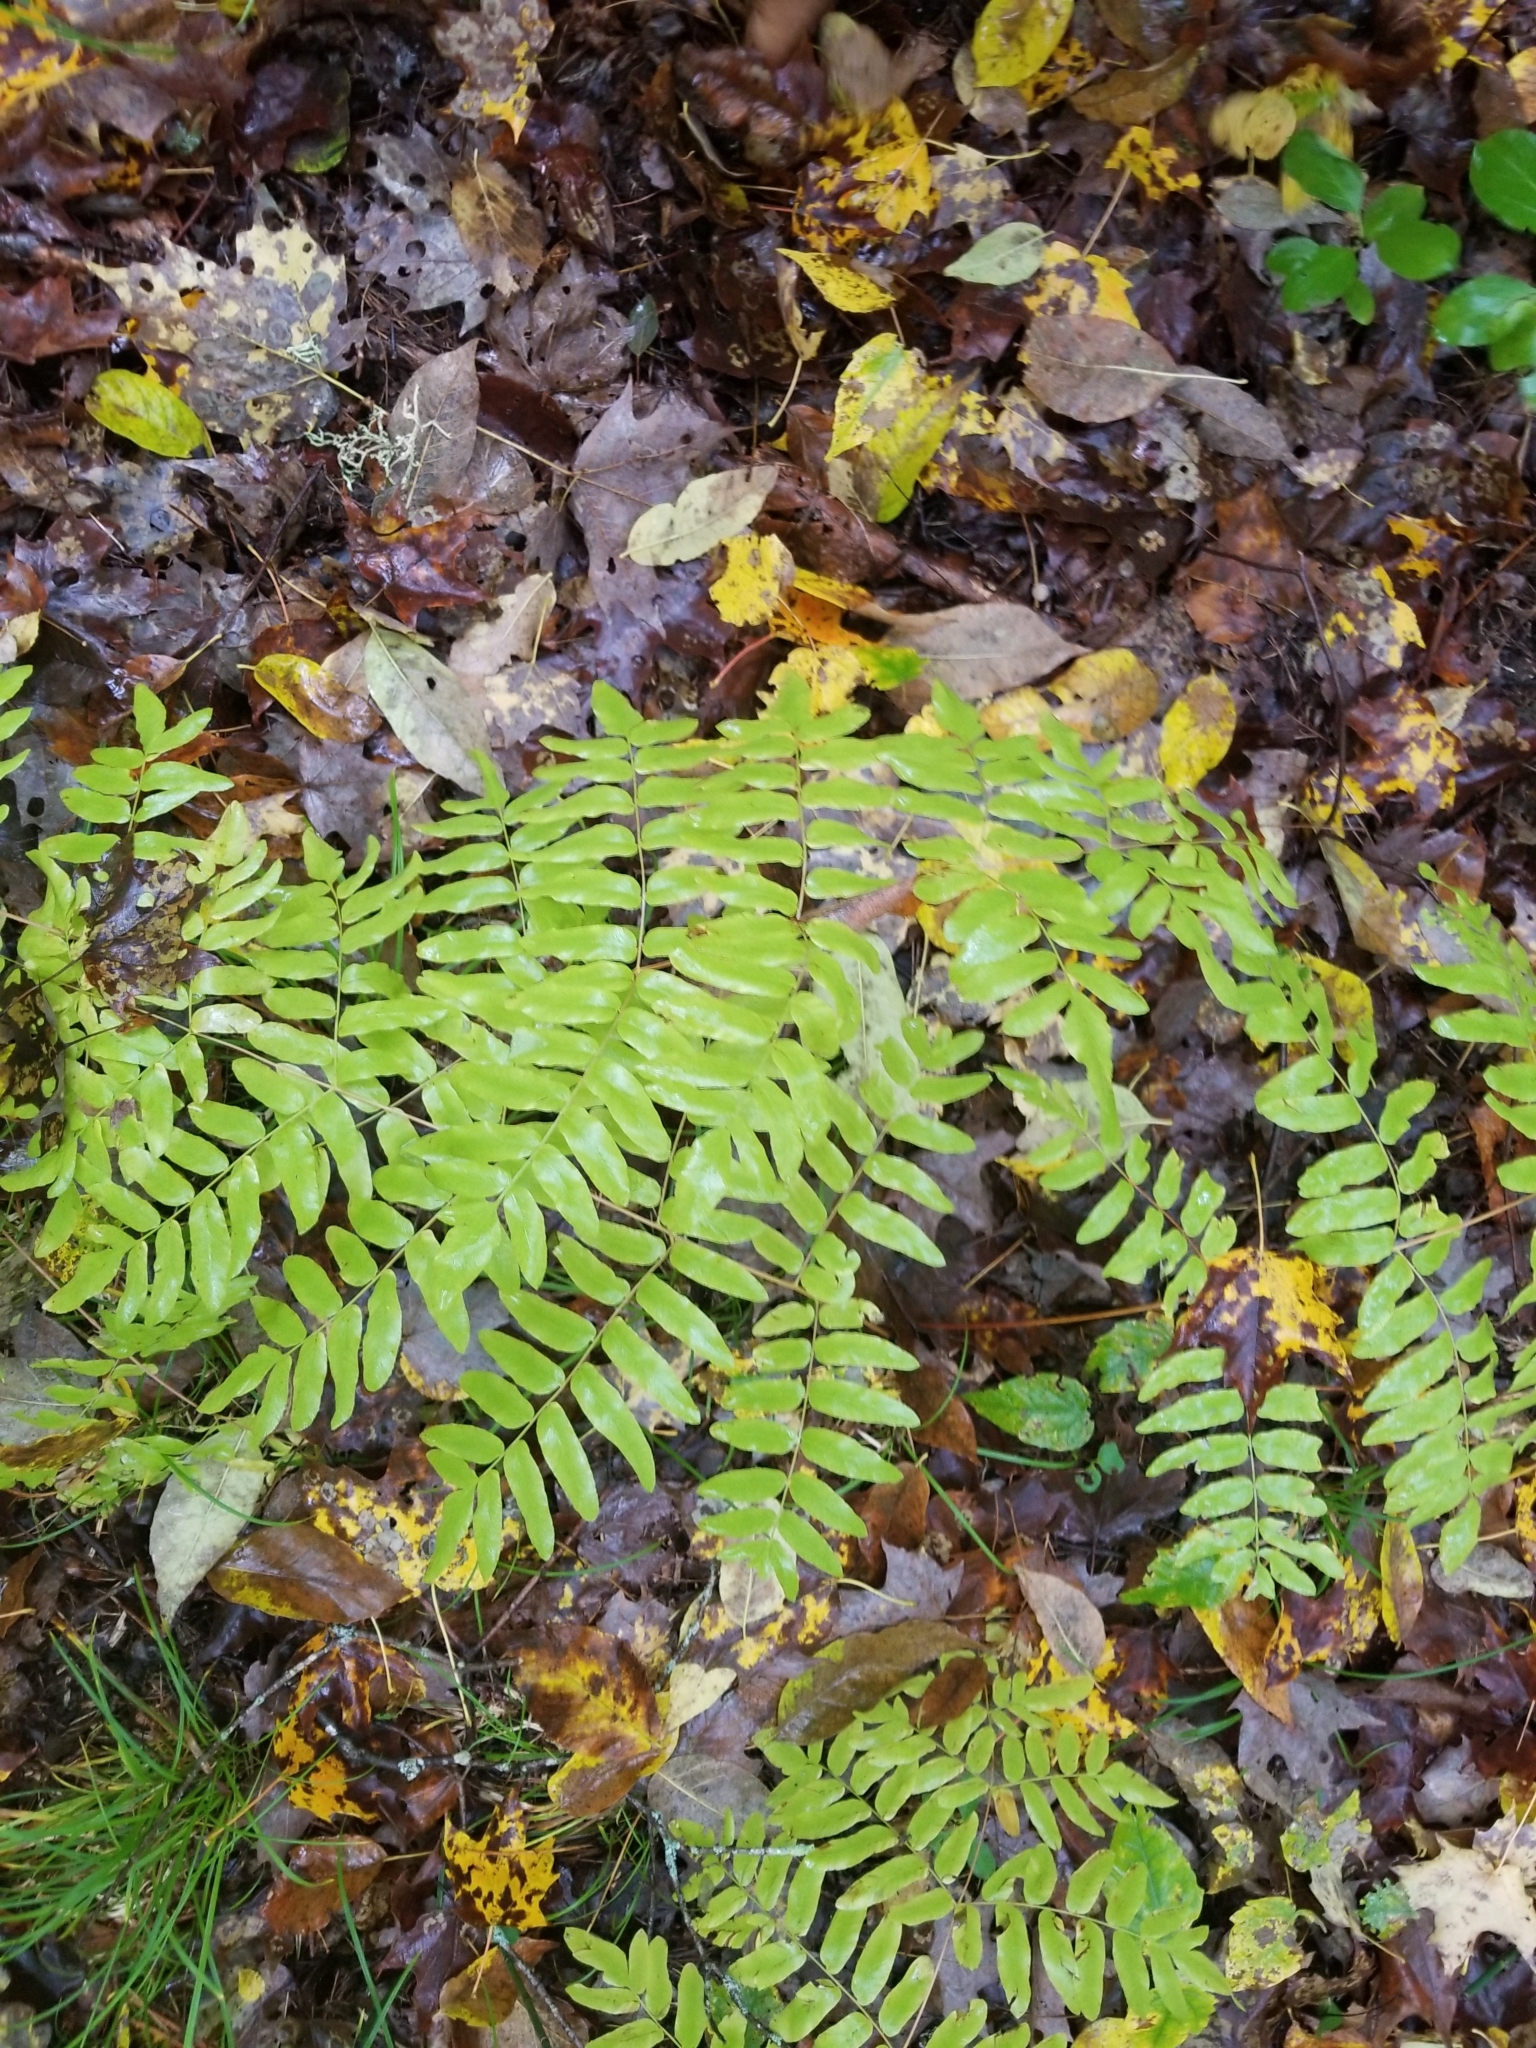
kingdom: Plantae
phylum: Tracheophyta
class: Polypodiopsida
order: Osmundales
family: Osmundaceae
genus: Osmunda
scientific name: Osmunda spectabilis
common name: American royal fern
